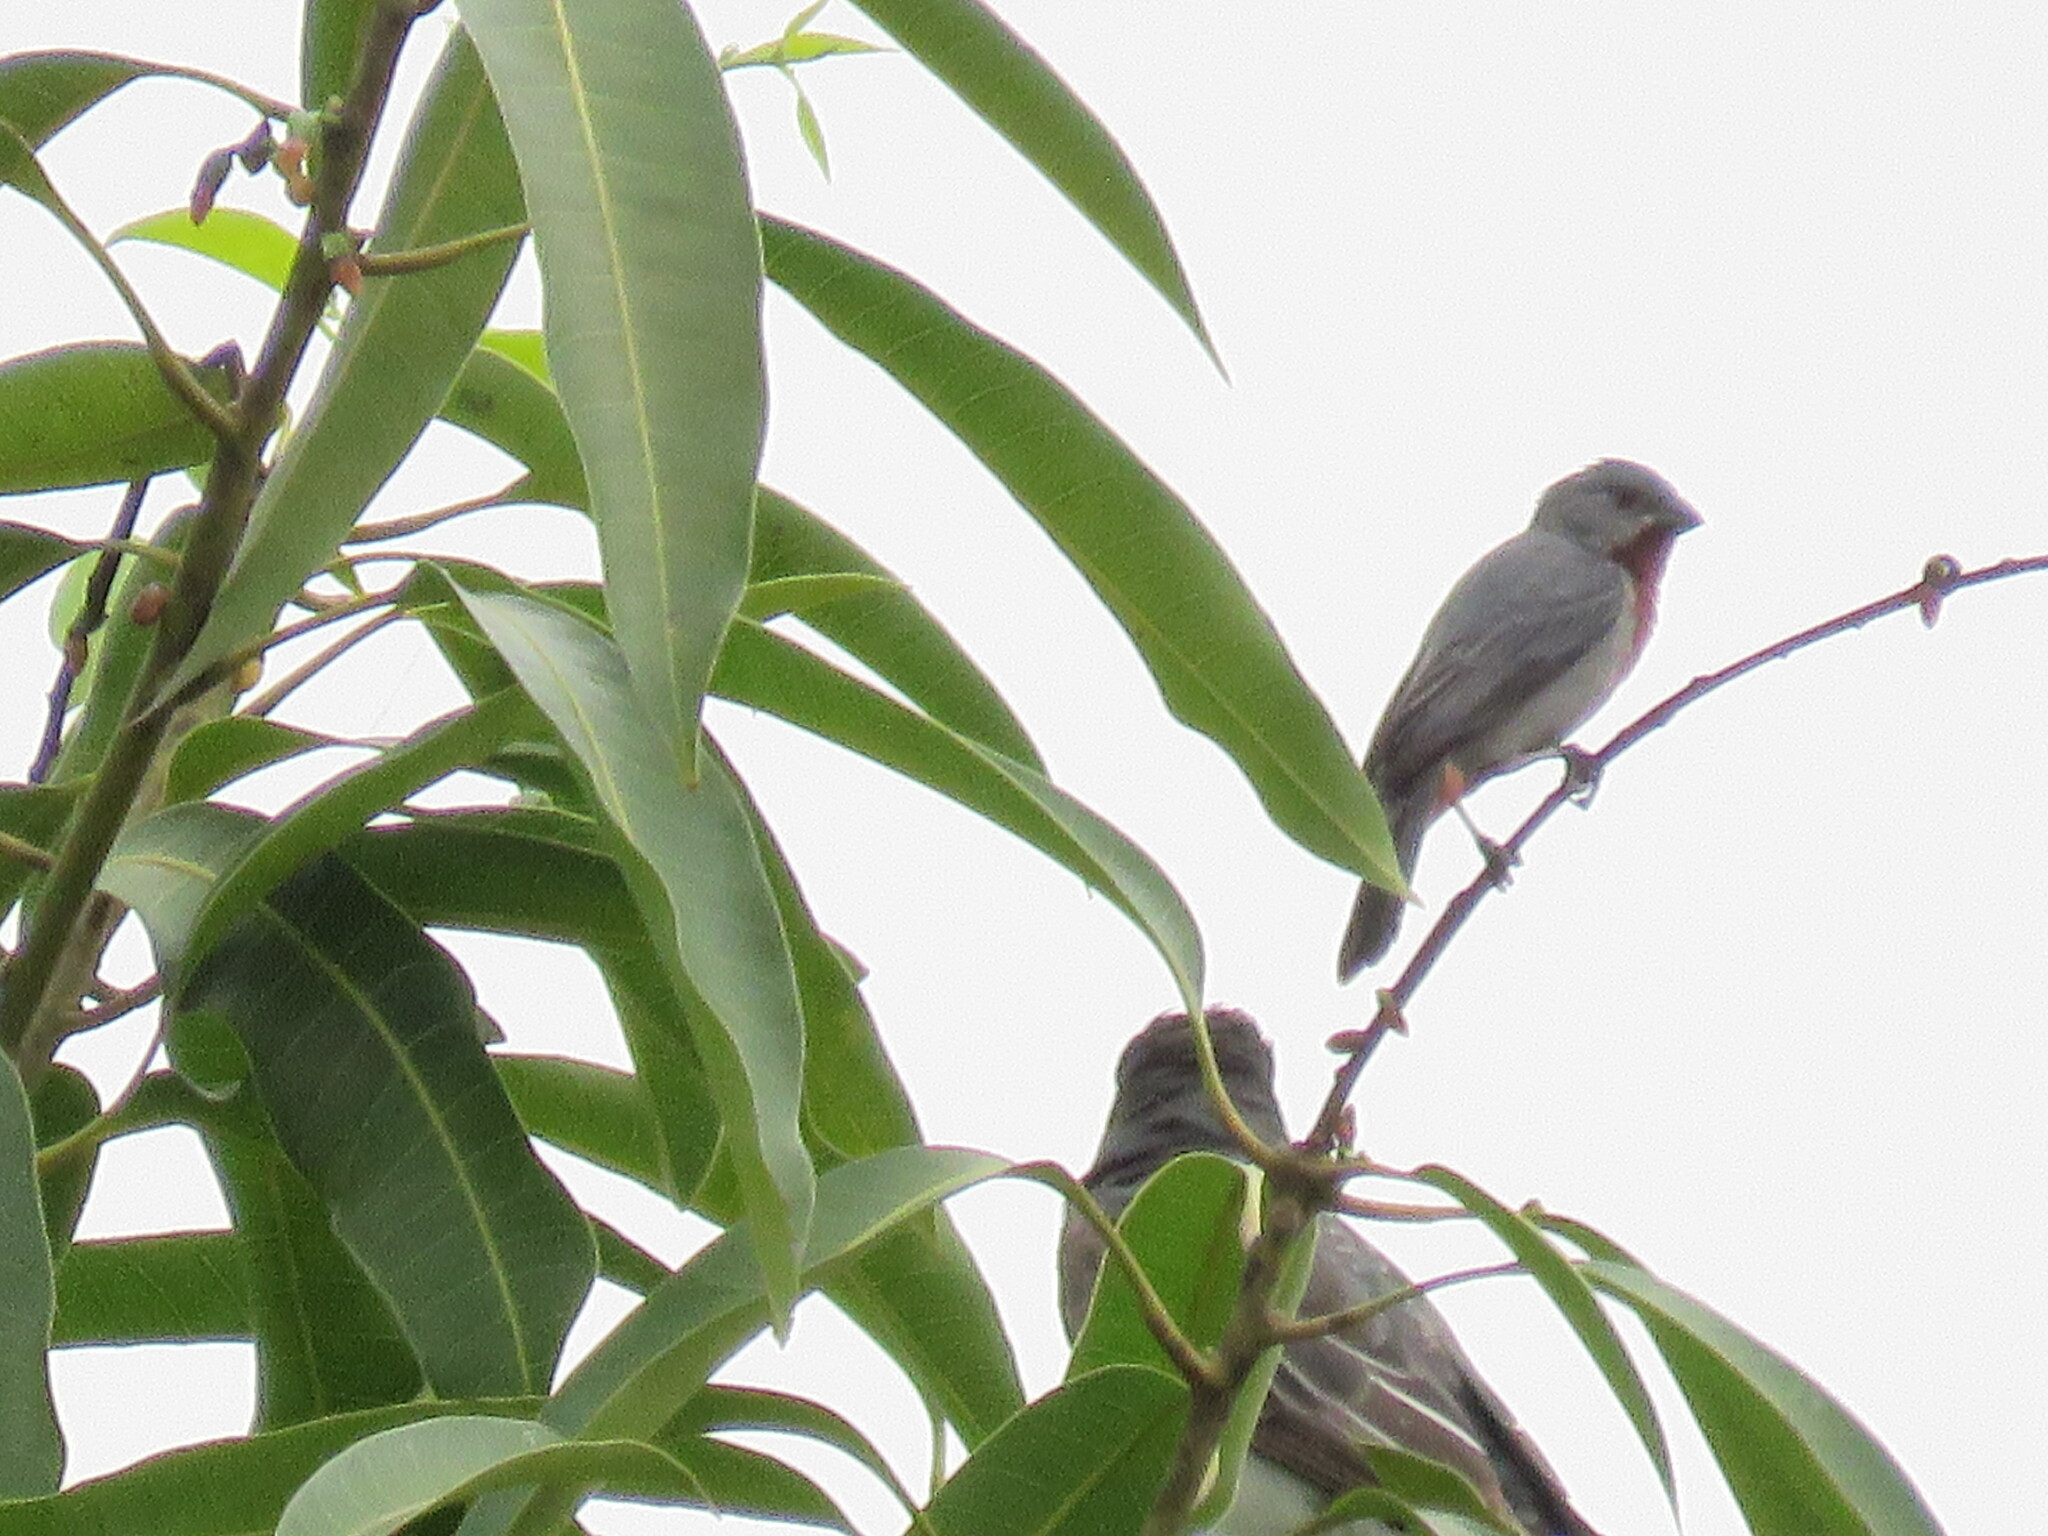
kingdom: Animalia
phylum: Chordata
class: Aves
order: Passeriformes
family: Thraupidae
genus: Sporophila
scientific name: Sporophila castaneiventris
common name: Chestnut-bellied seedeater
